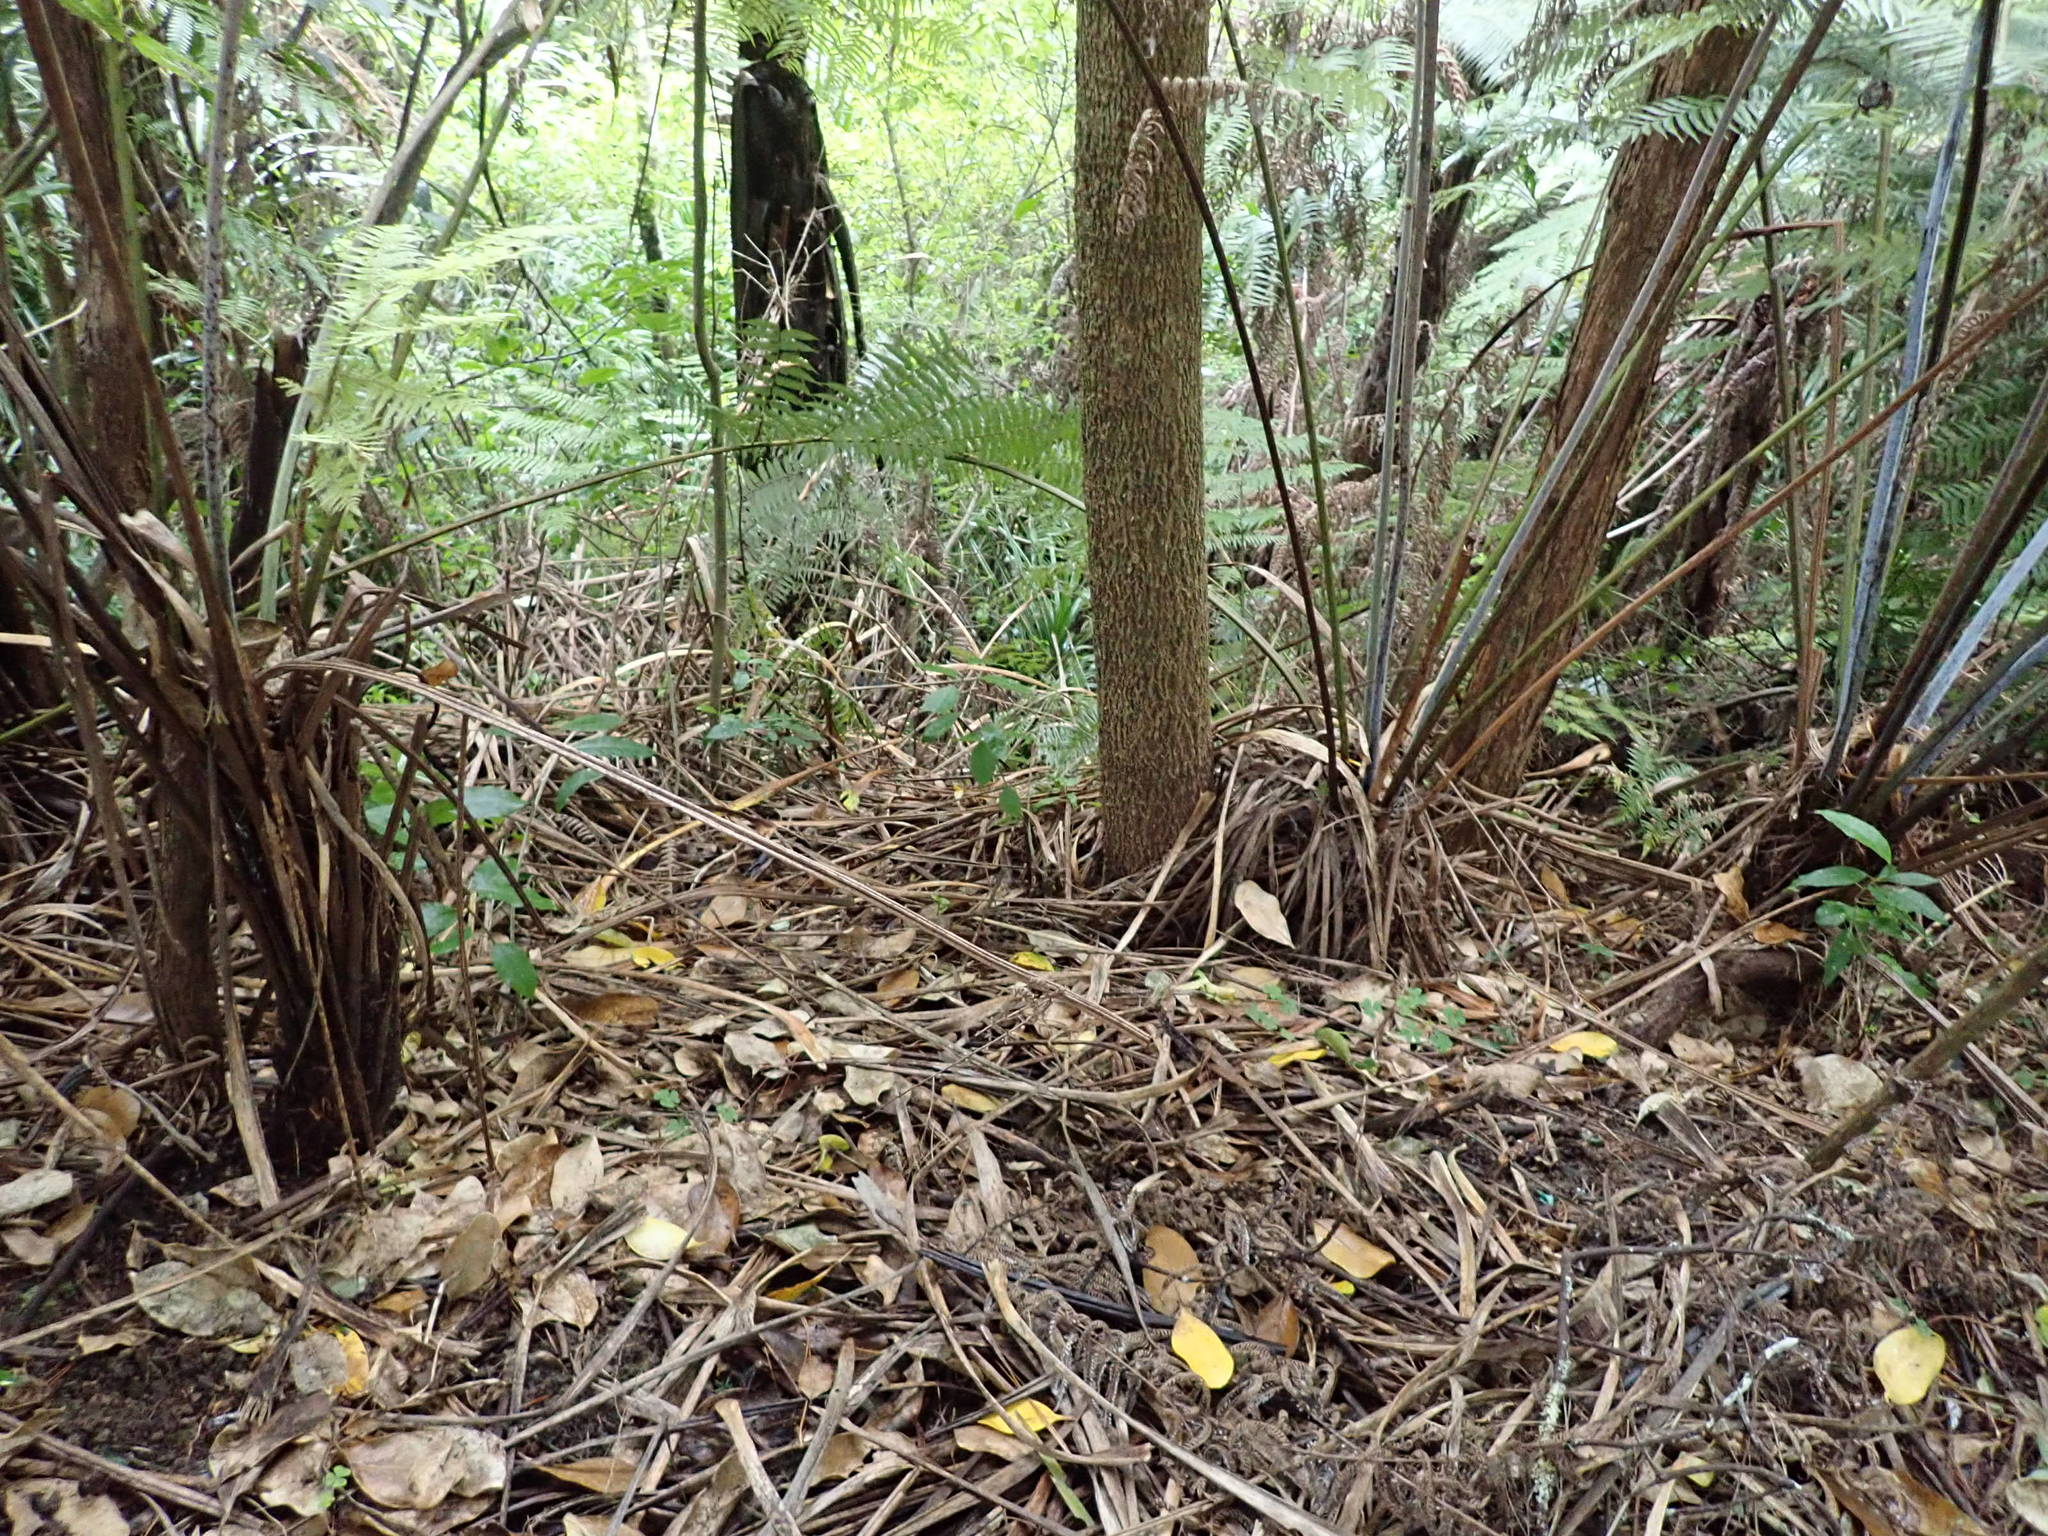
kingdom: Plantae
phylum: Tracheophyta
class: Polypodiopsida
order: Cyatheales
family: Cyatheaceae
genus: Alsophila
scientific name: Alsophila dealbata
